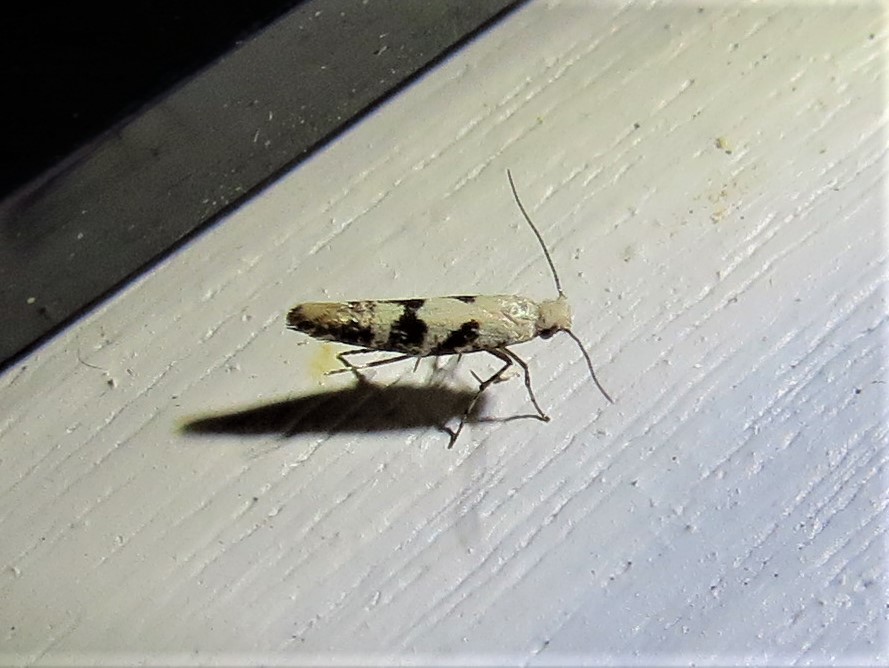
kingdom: Animalia
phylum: Arthropoda
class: Insecta
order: Lepidoptera
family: Argyresthiidae
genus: Argyresthia
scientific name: Argyresthia austerella
